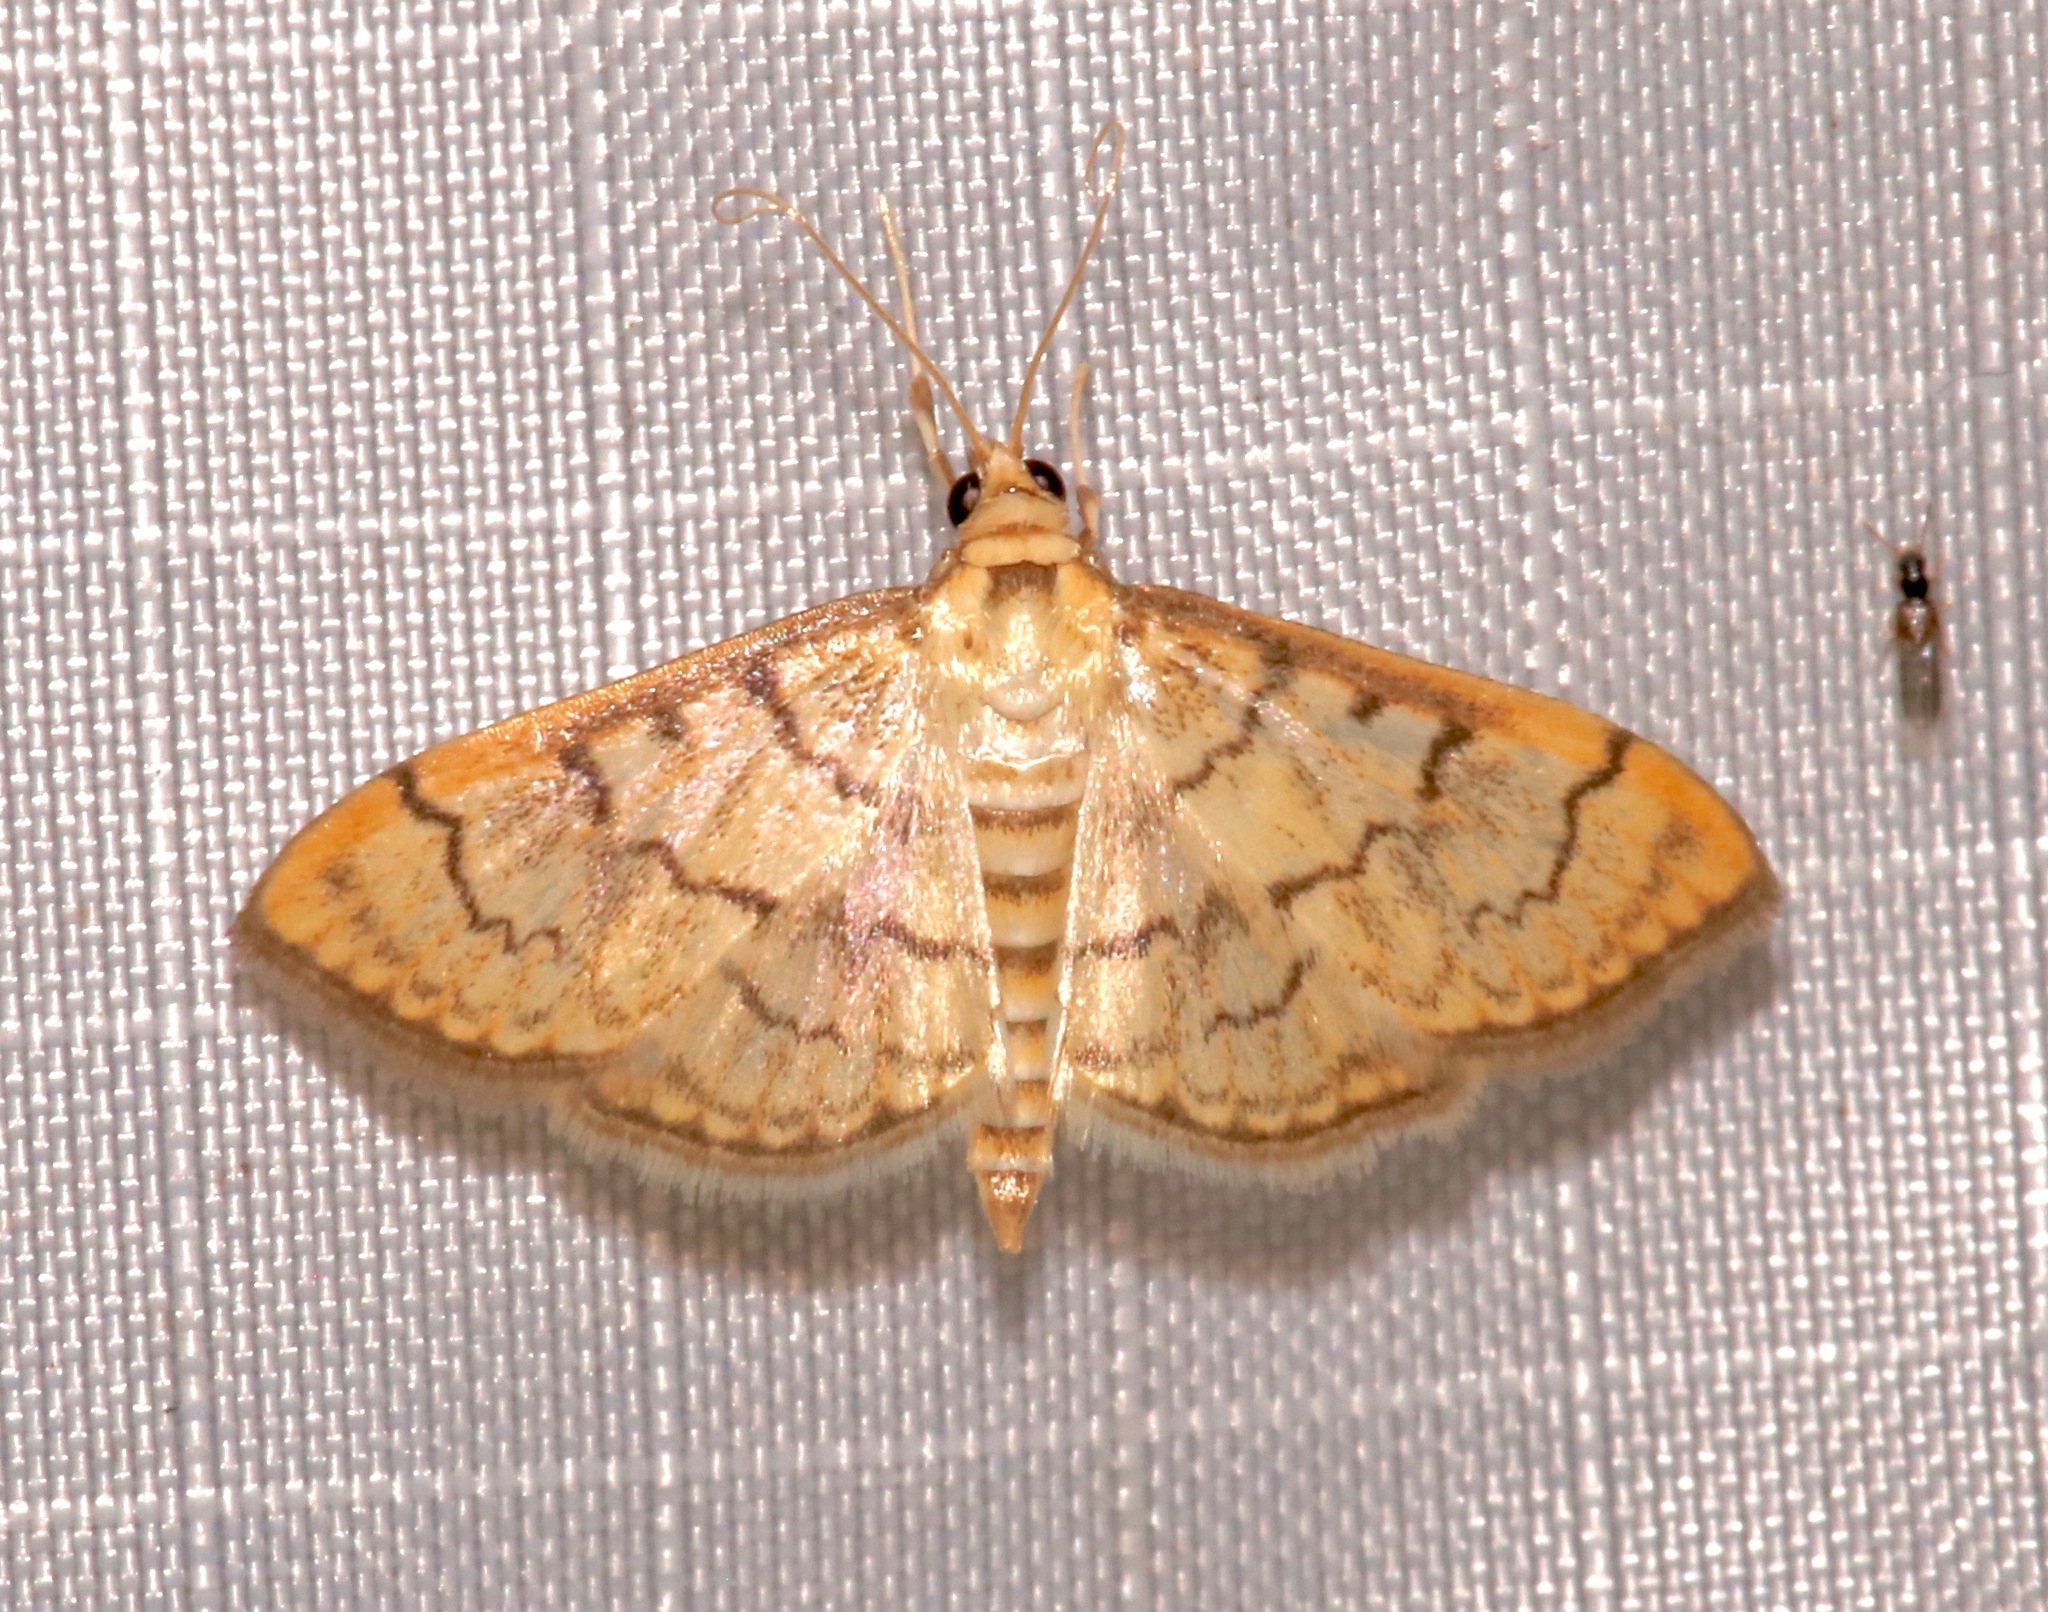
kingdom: Animalia
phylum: Arthropoda
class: Insecta
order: Lepidoptera
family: Crambidae
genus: Anania
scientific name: Anania labeculalis
